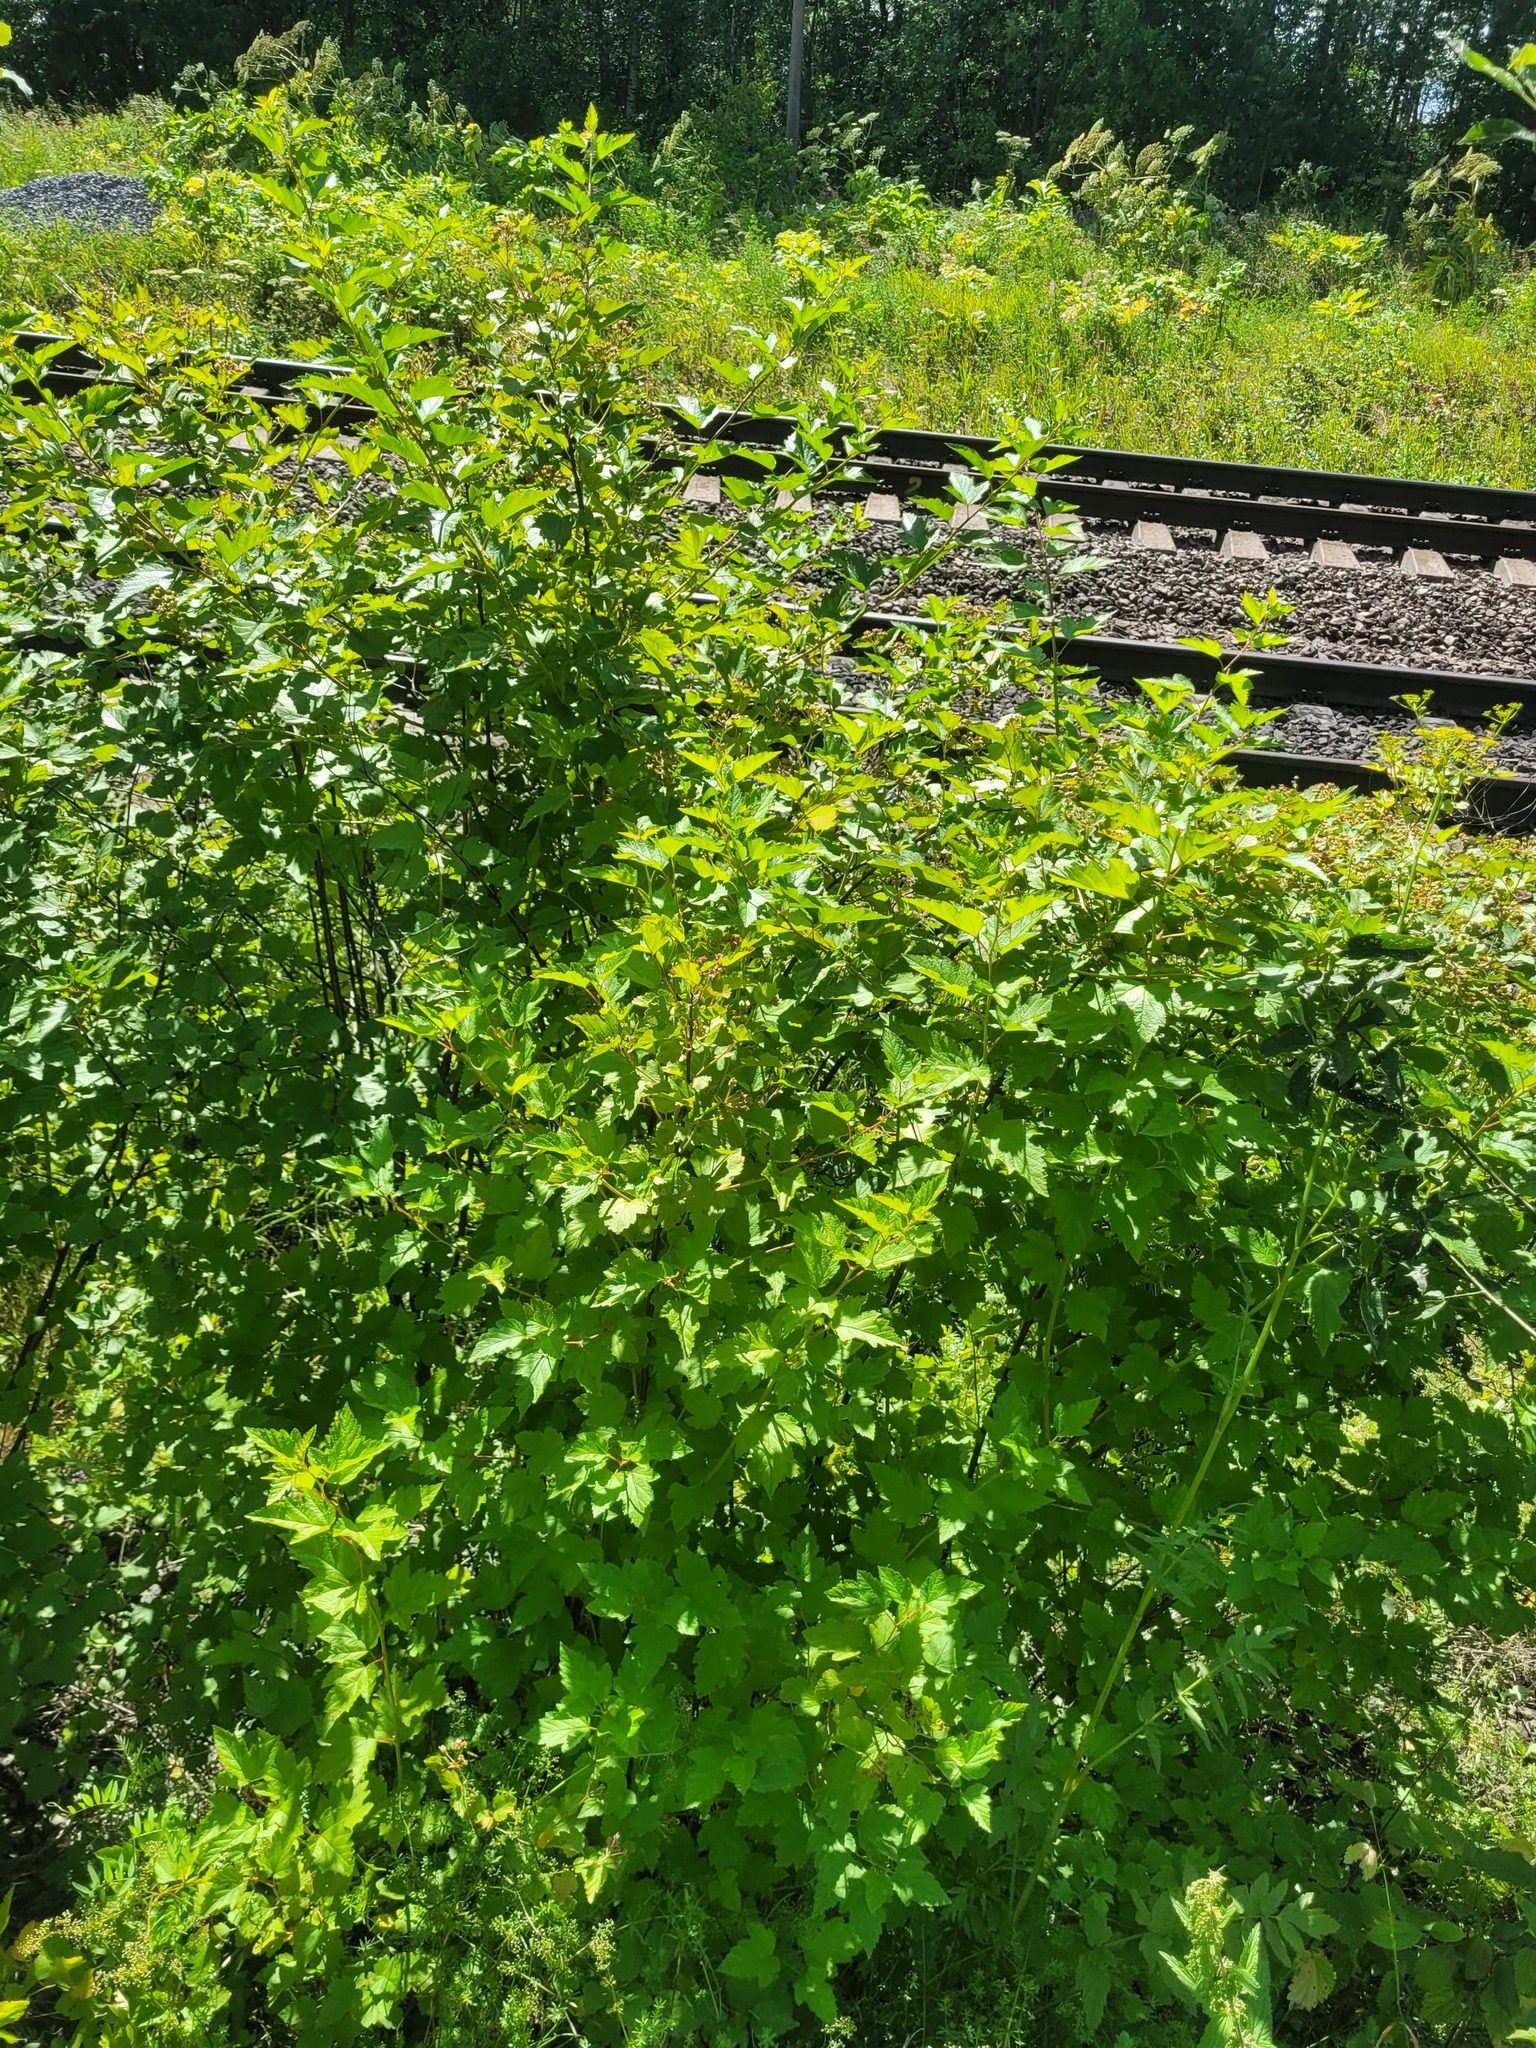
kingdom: Plantae
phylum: Tracheophyta
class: Magnoliopsida
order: Rosales
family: Rosaceae
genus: Physocarpus
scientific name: Physocarpus opulifolius
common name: Ninebark
